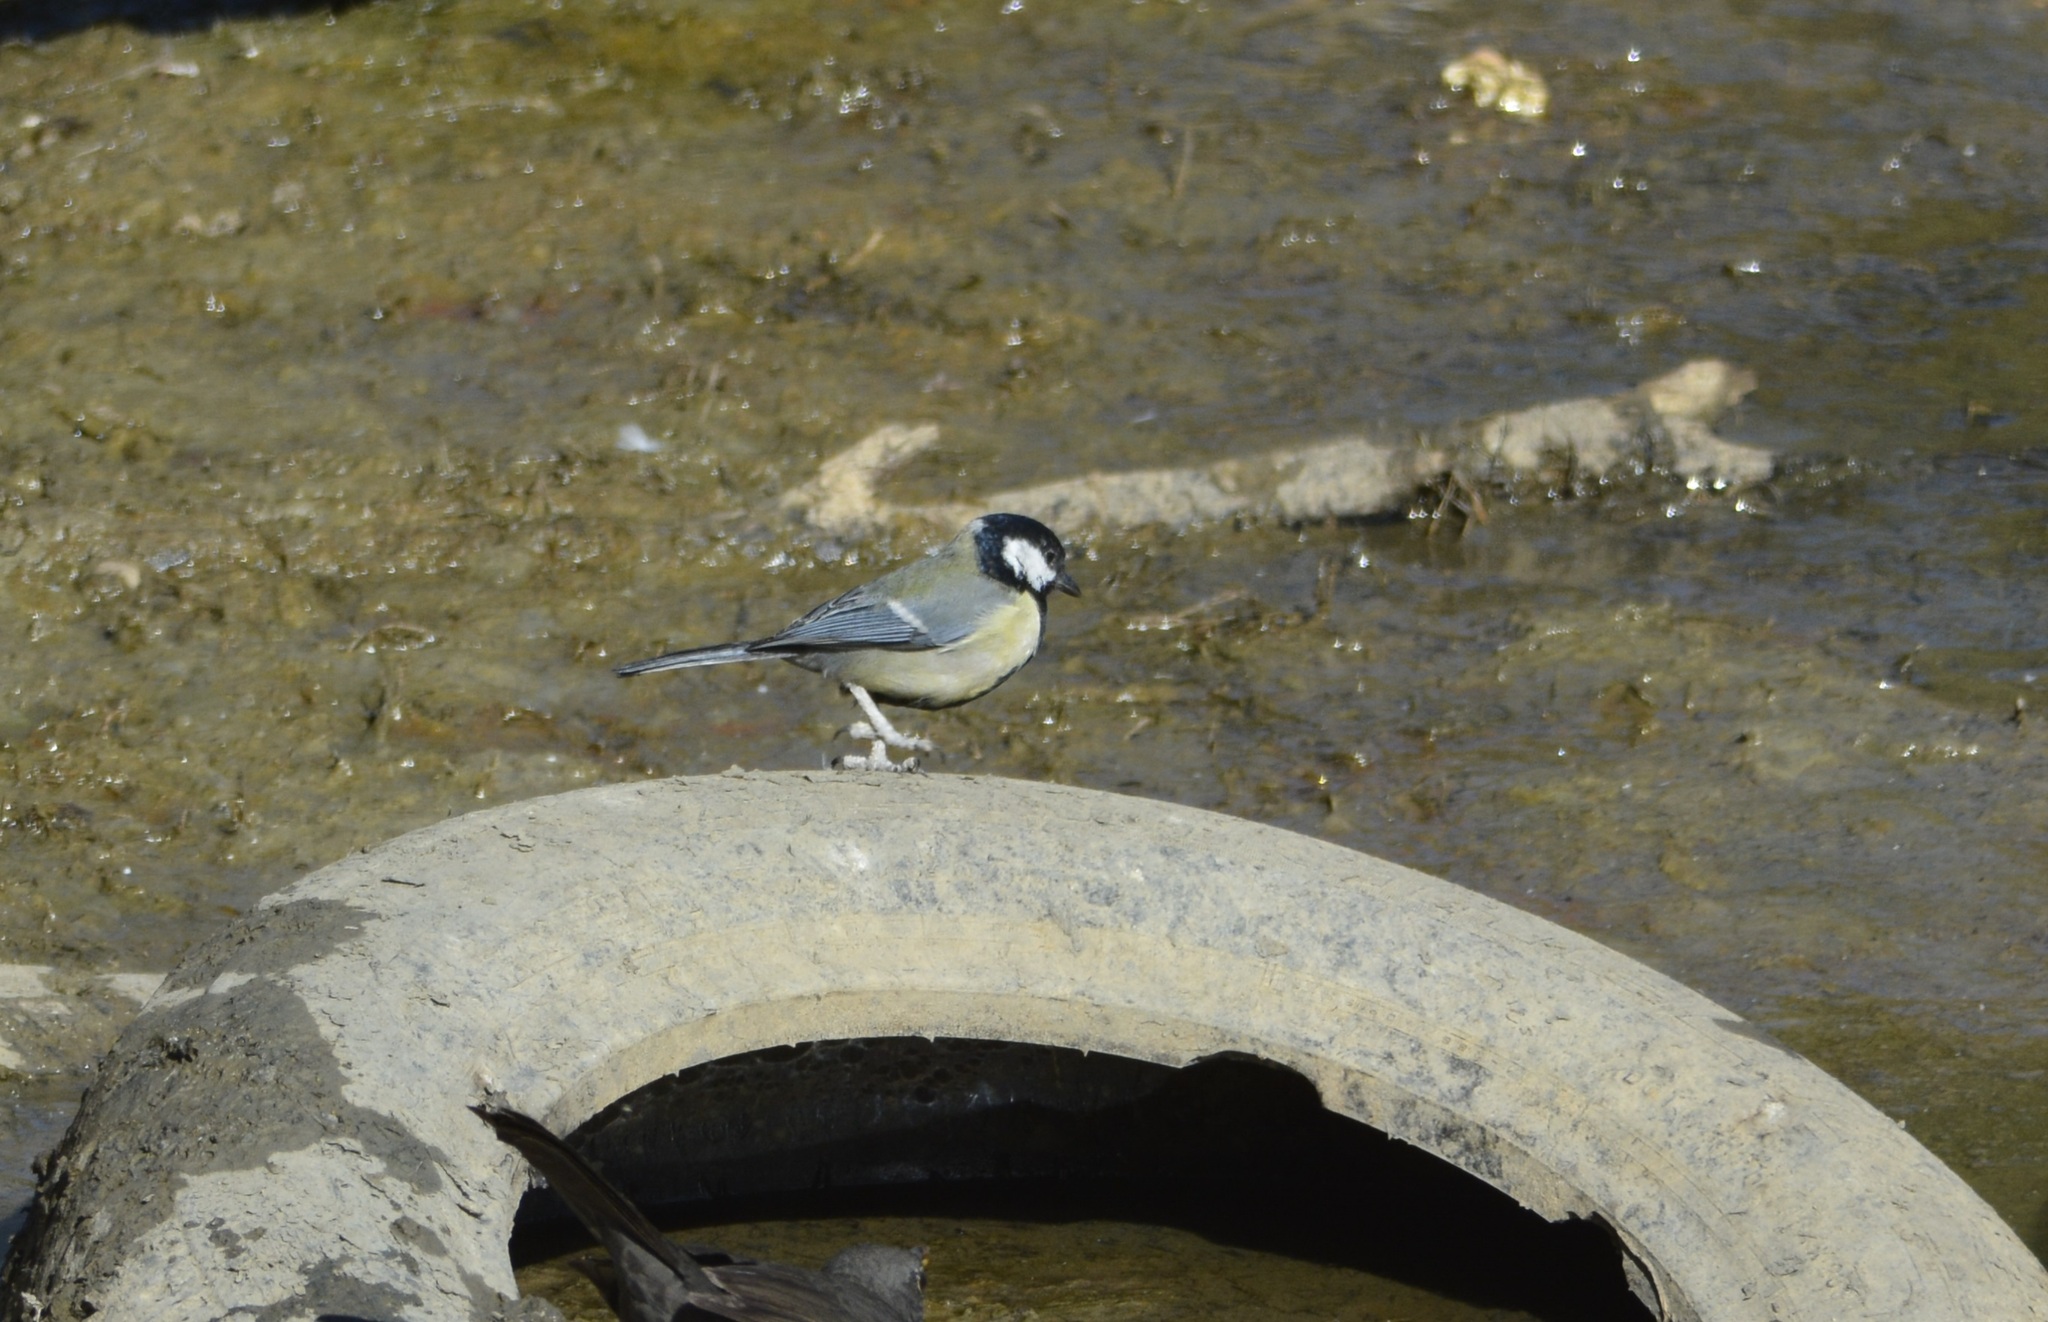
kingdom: Animalia
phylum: Chordata
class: Aves
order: Passeriformes
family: Paridae
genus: Parus
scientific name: Parus major
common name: Great tit
